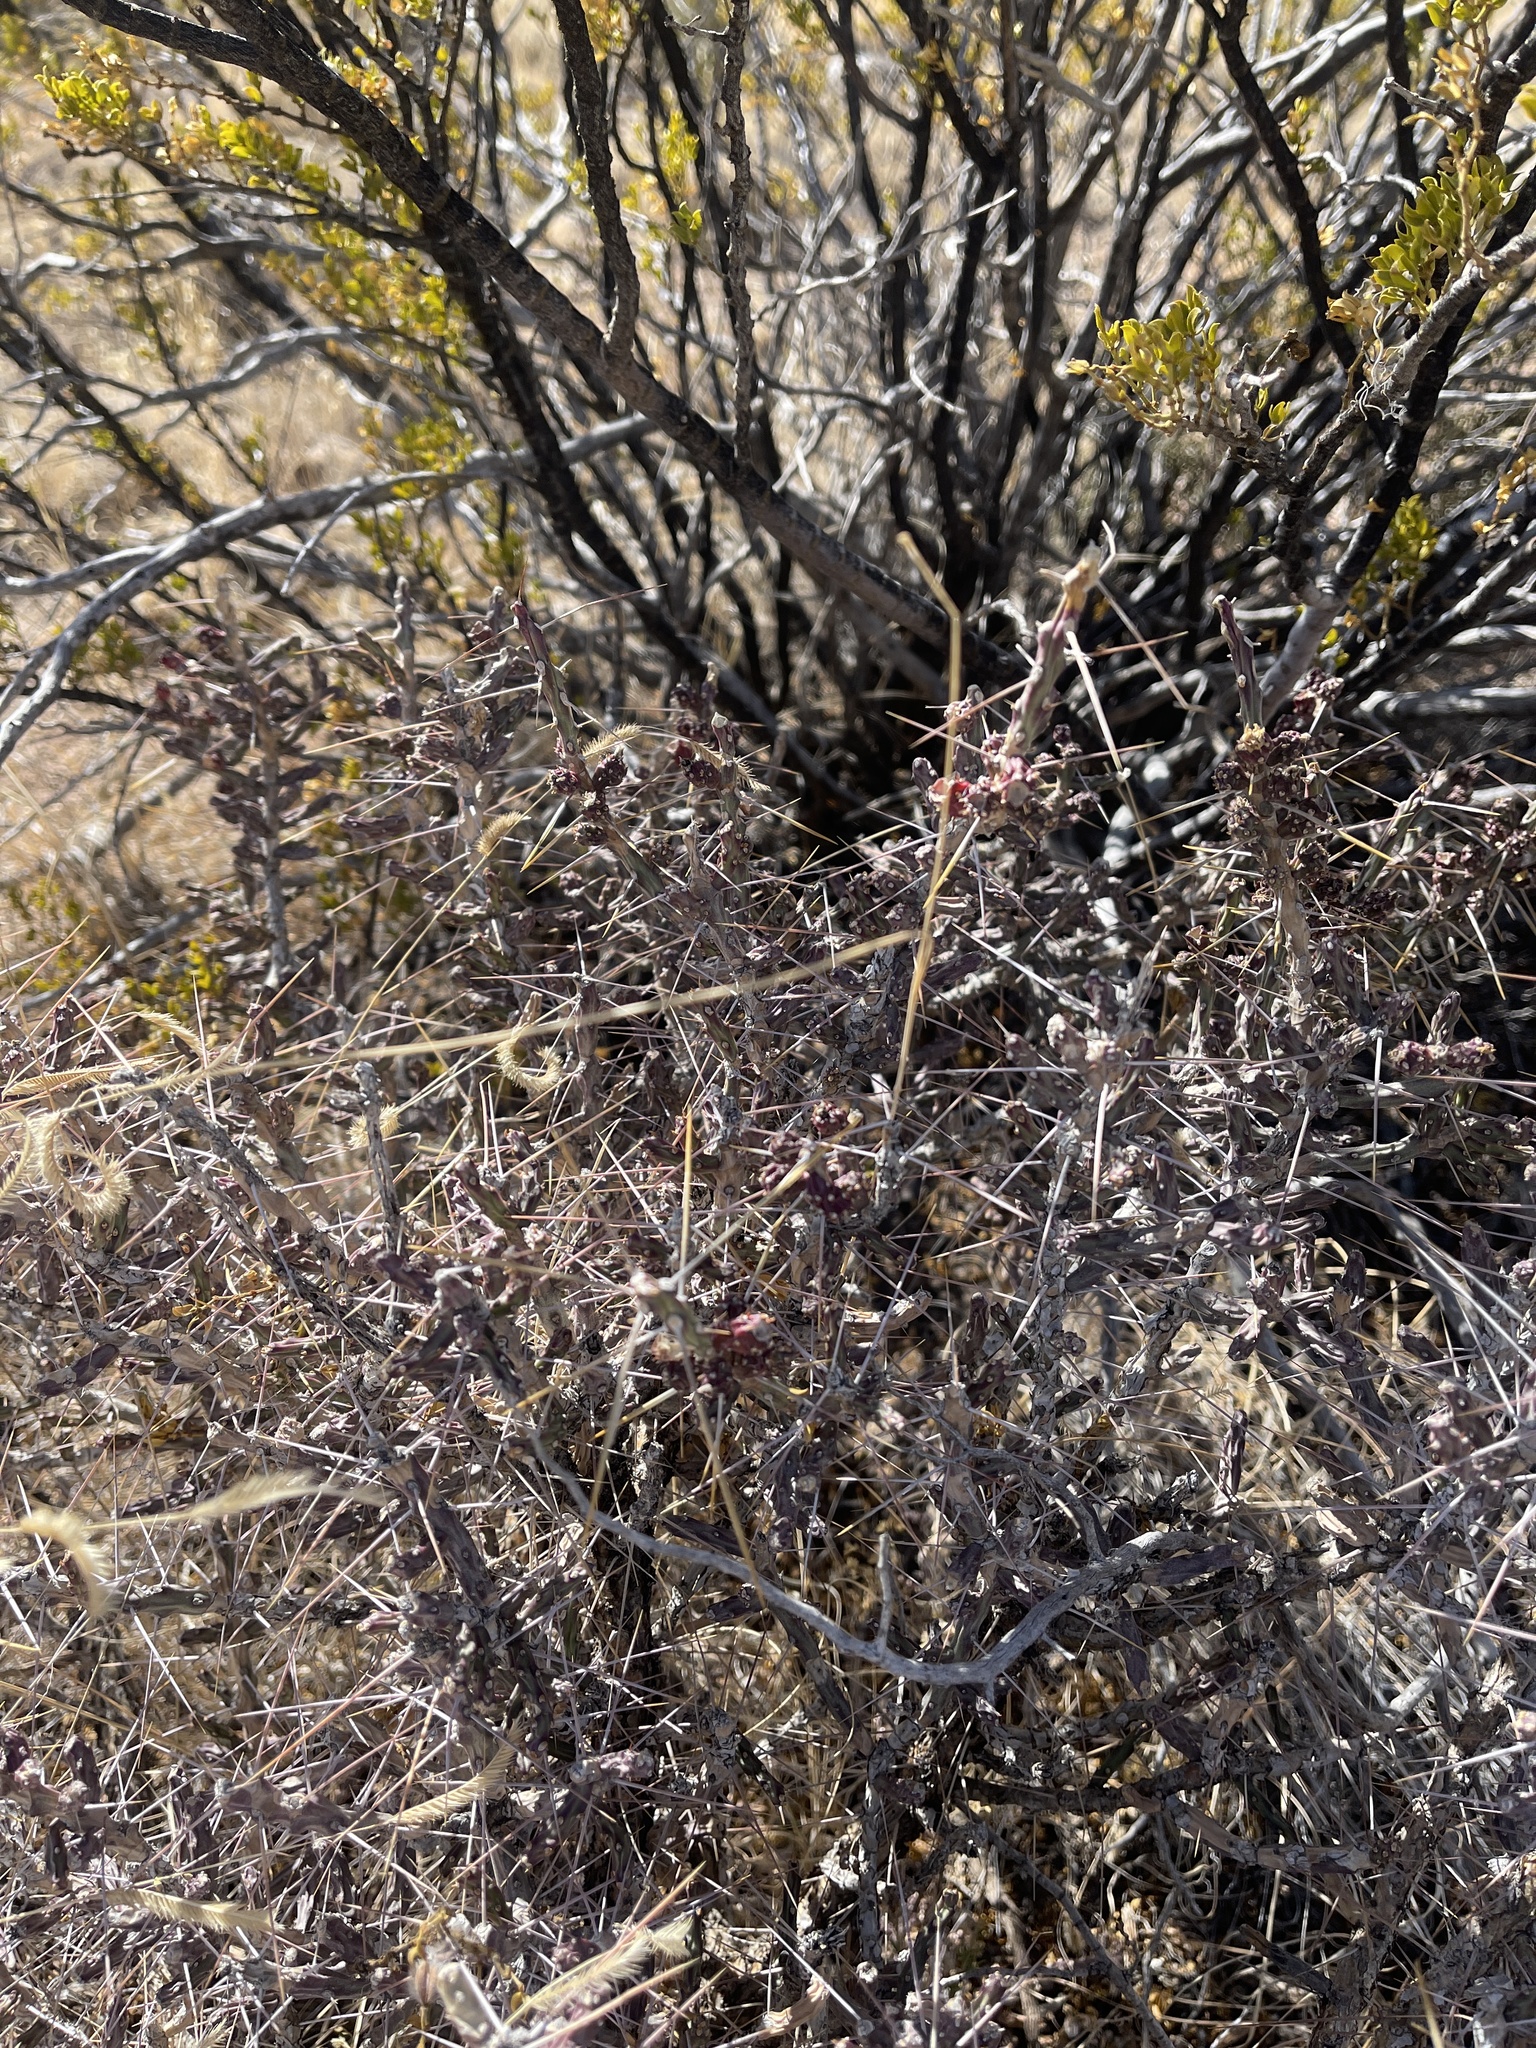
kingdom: Plantae
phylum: Tracheophyta
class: Magnoliopsida
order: Caryophyllales
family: Cactaceae
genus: Cylindropuntia
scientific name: Cylindropuntia leptocaulis
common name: Christmas cactus
